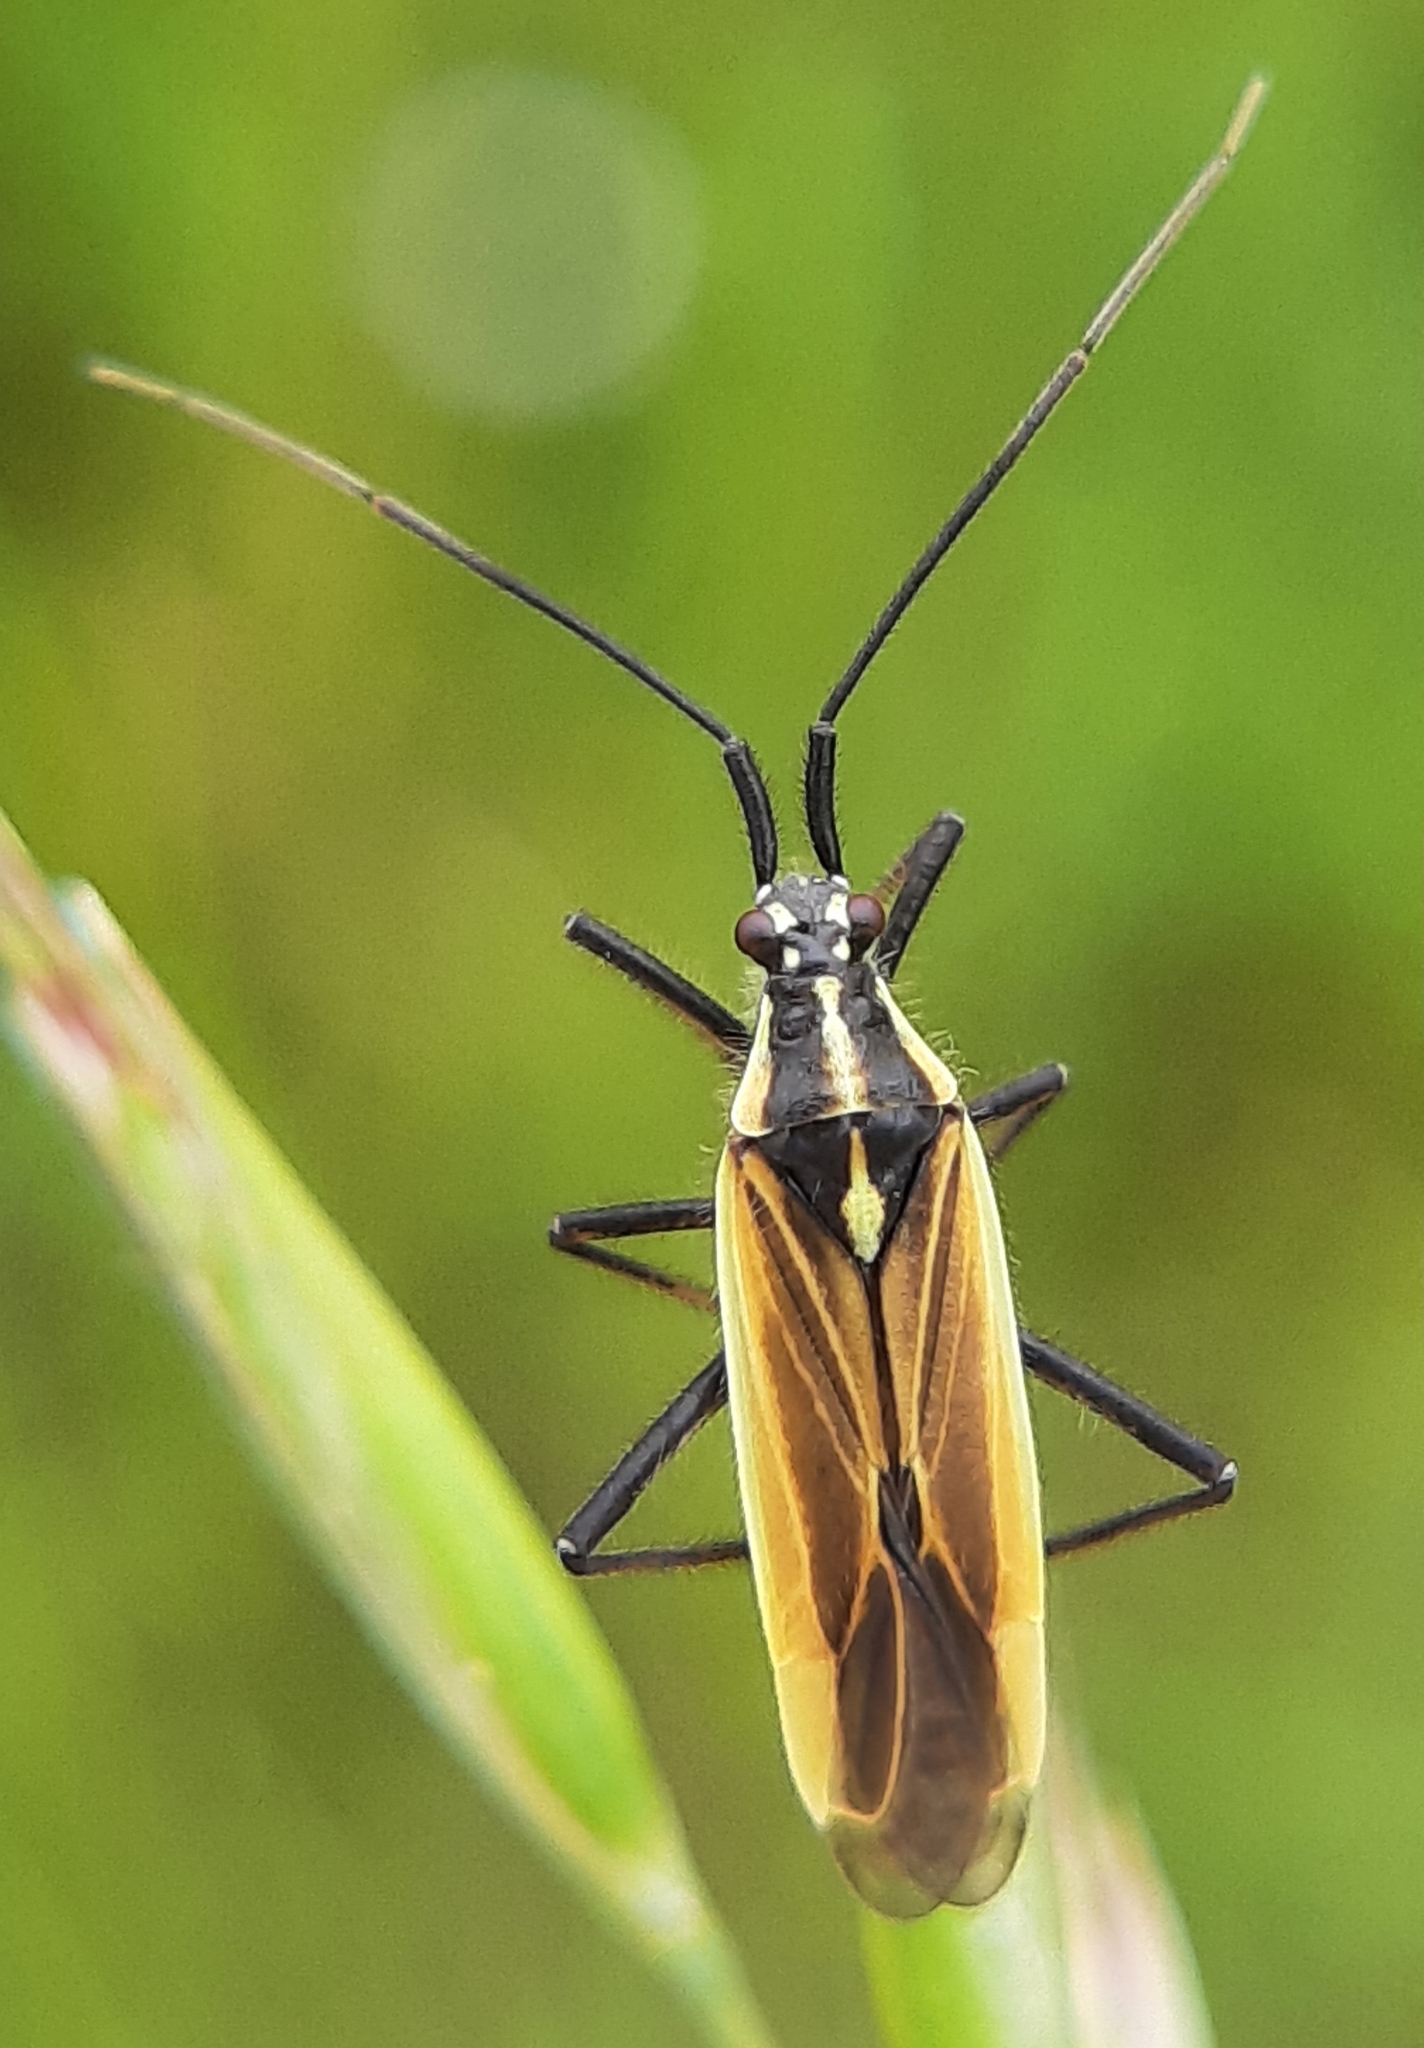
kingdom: Animalia
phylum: Arthropoda
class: Insecta
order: Hemiptera
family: Miridae
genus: Leptopterna
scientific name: Leptopterna dolabrata
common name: Meadow plant bug
